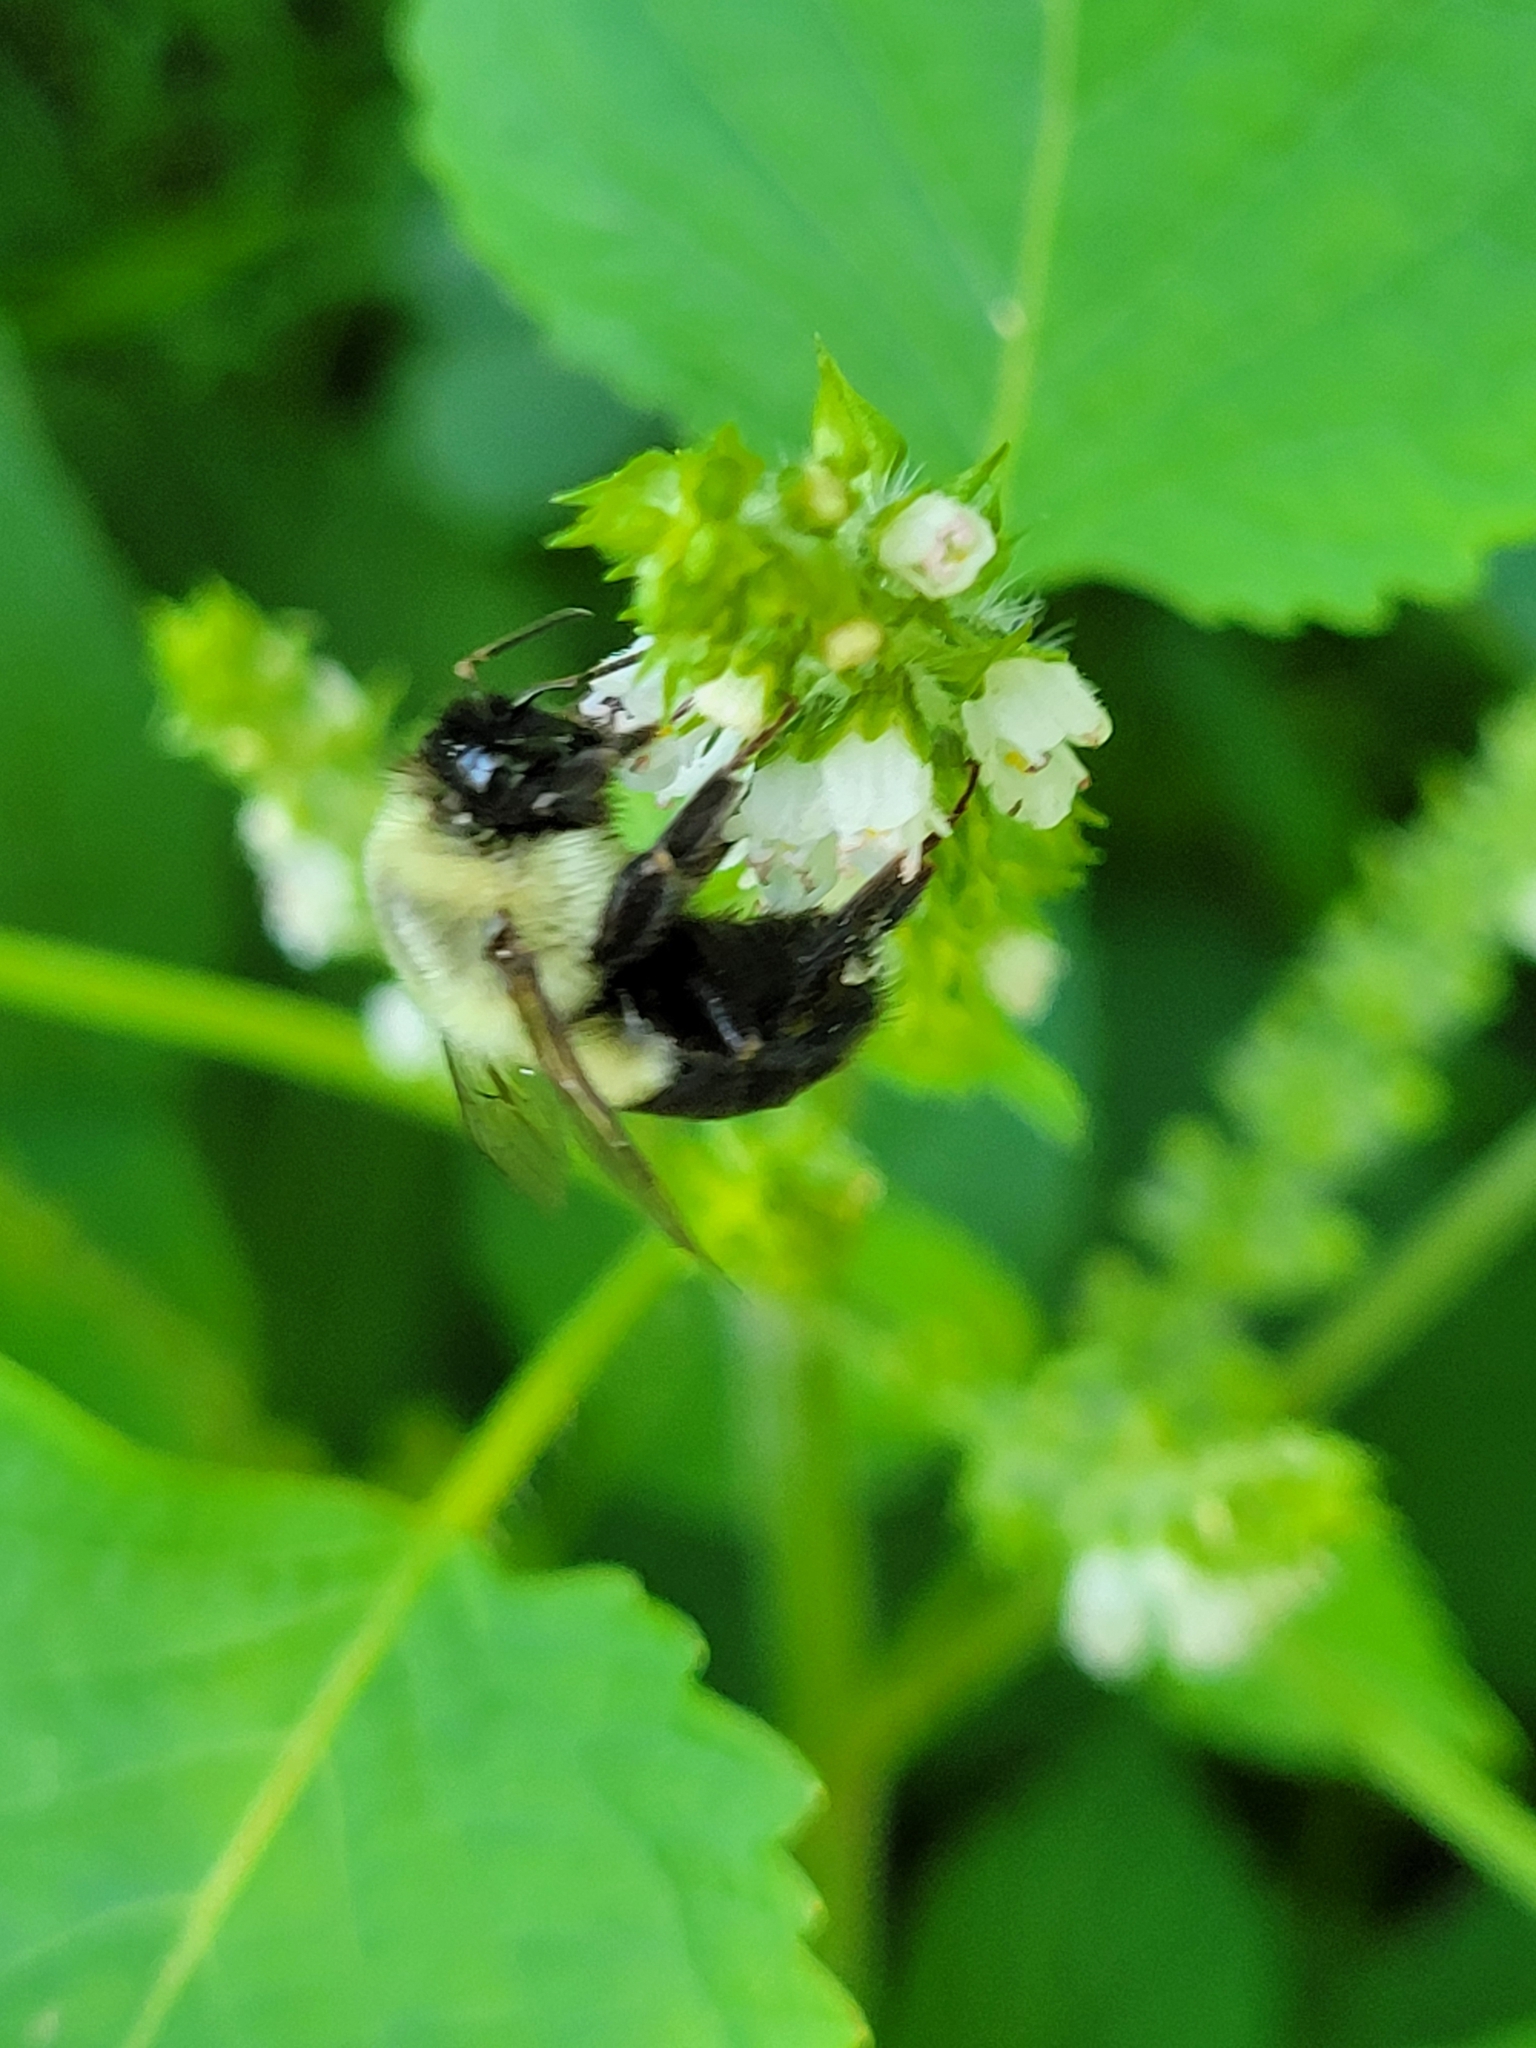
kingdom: Animalia
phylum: Arthropoda
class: Insecta
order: Hymenoptera
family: Apidae
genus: Bombus
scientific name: Bombus impatiens
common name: Common eastern bumble bee
